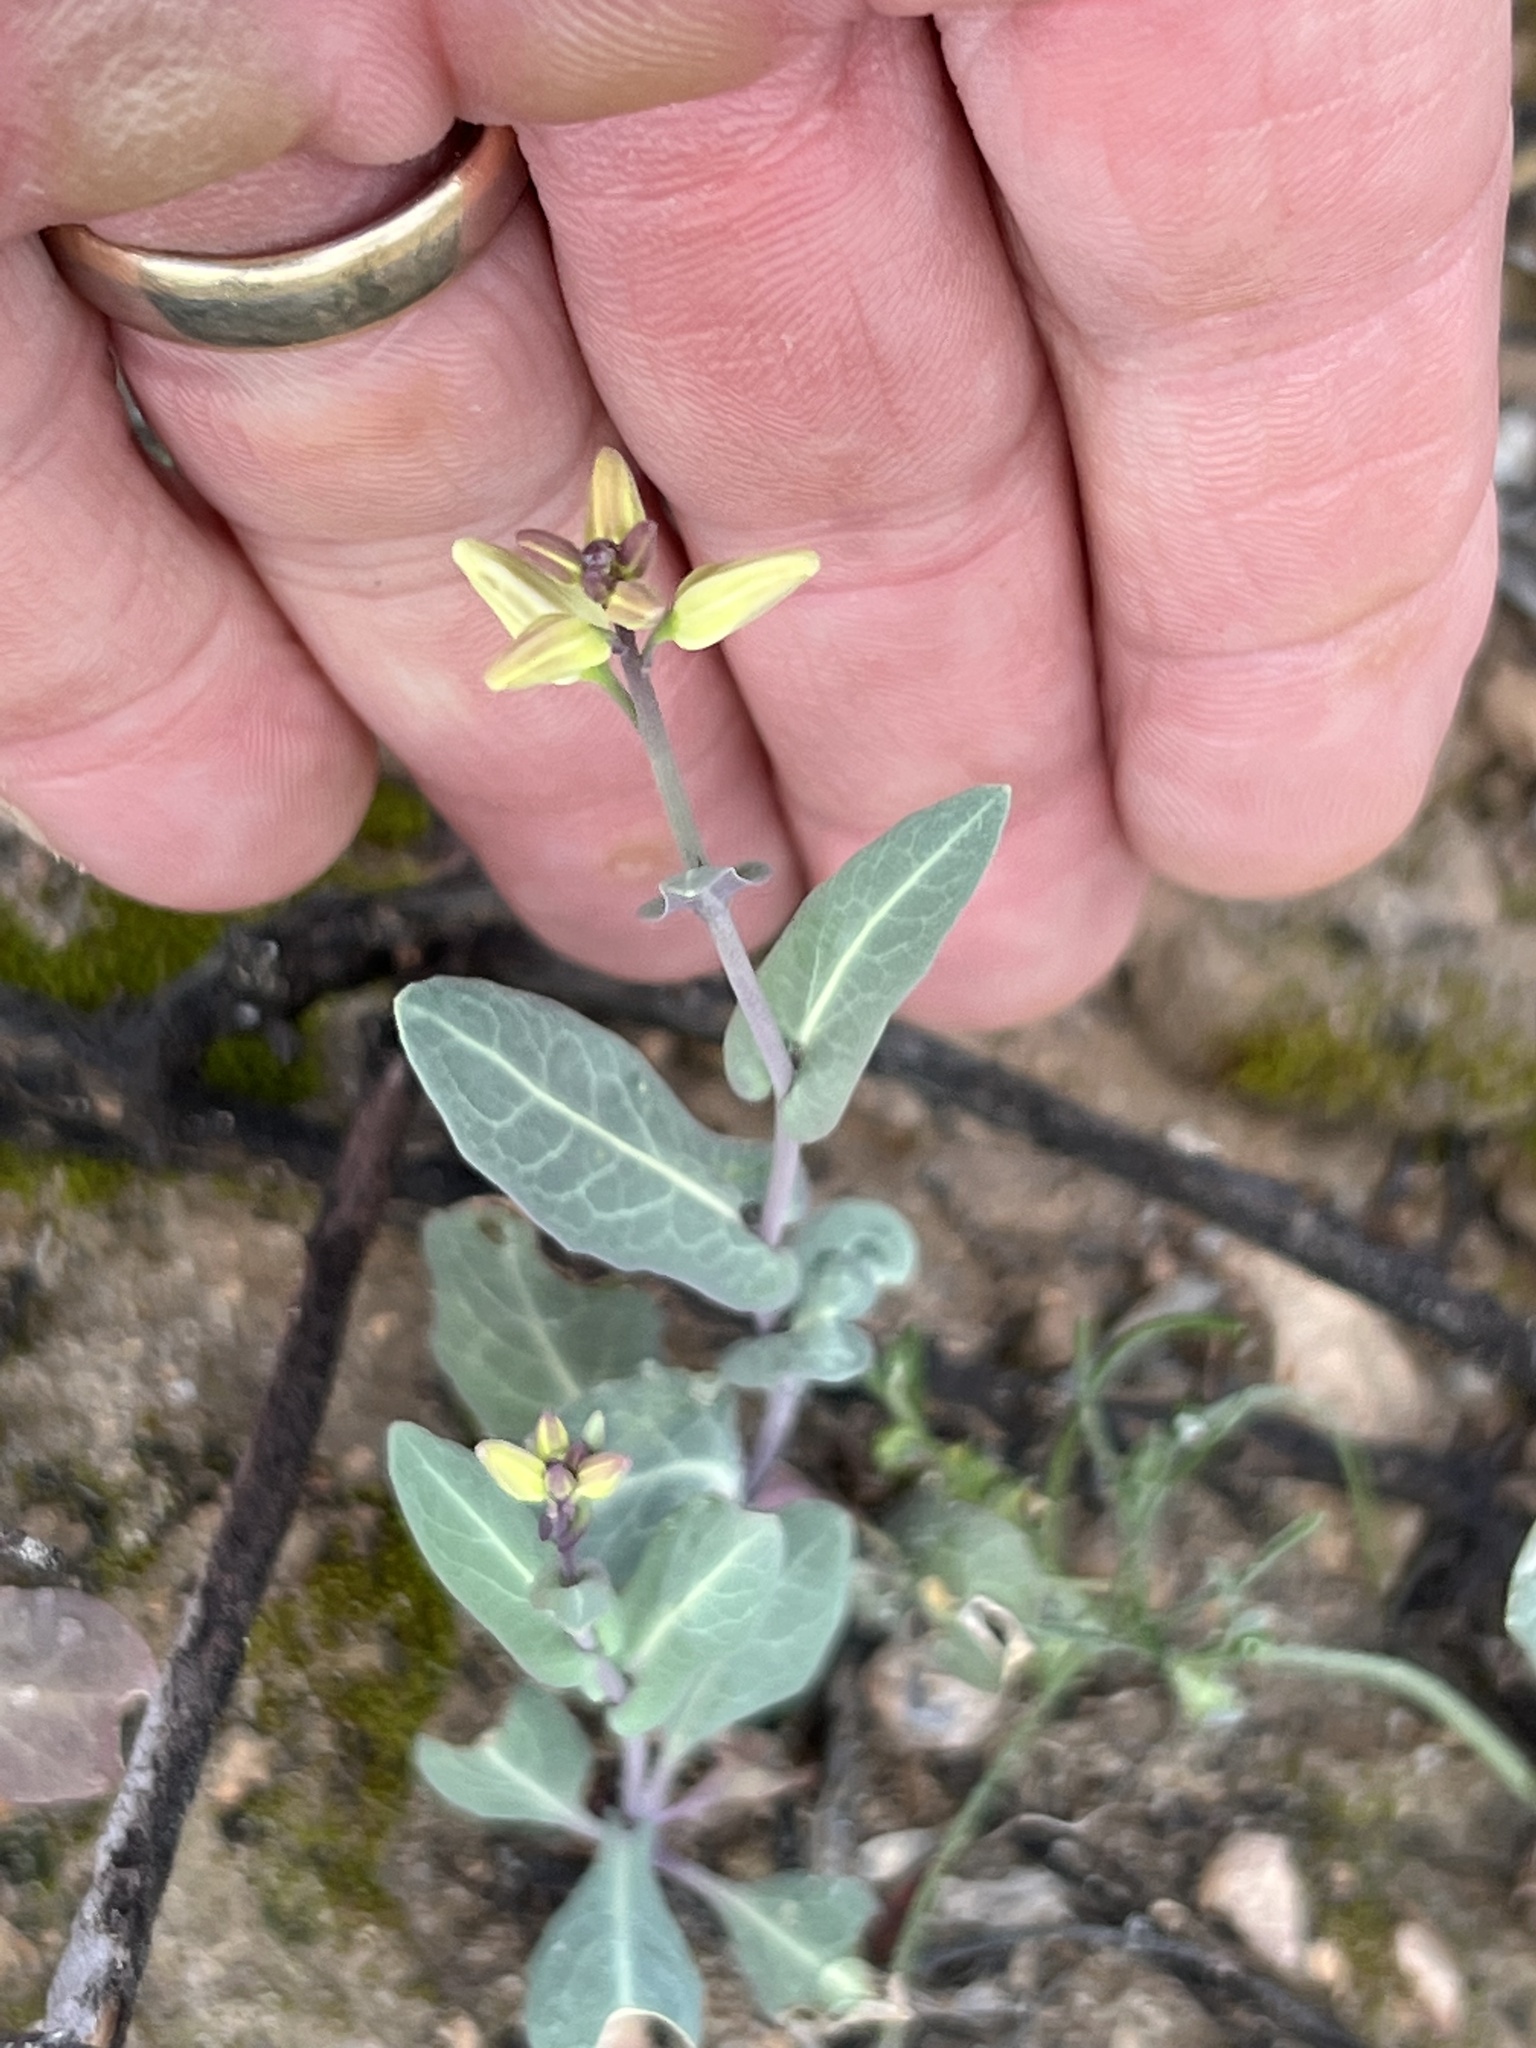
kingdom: Plantae
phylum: Tracheophyta
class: Magnoliopsida
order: Brassicales
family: Brassicaceae
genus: Streptanthus
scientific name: Streptanthus carinatus
